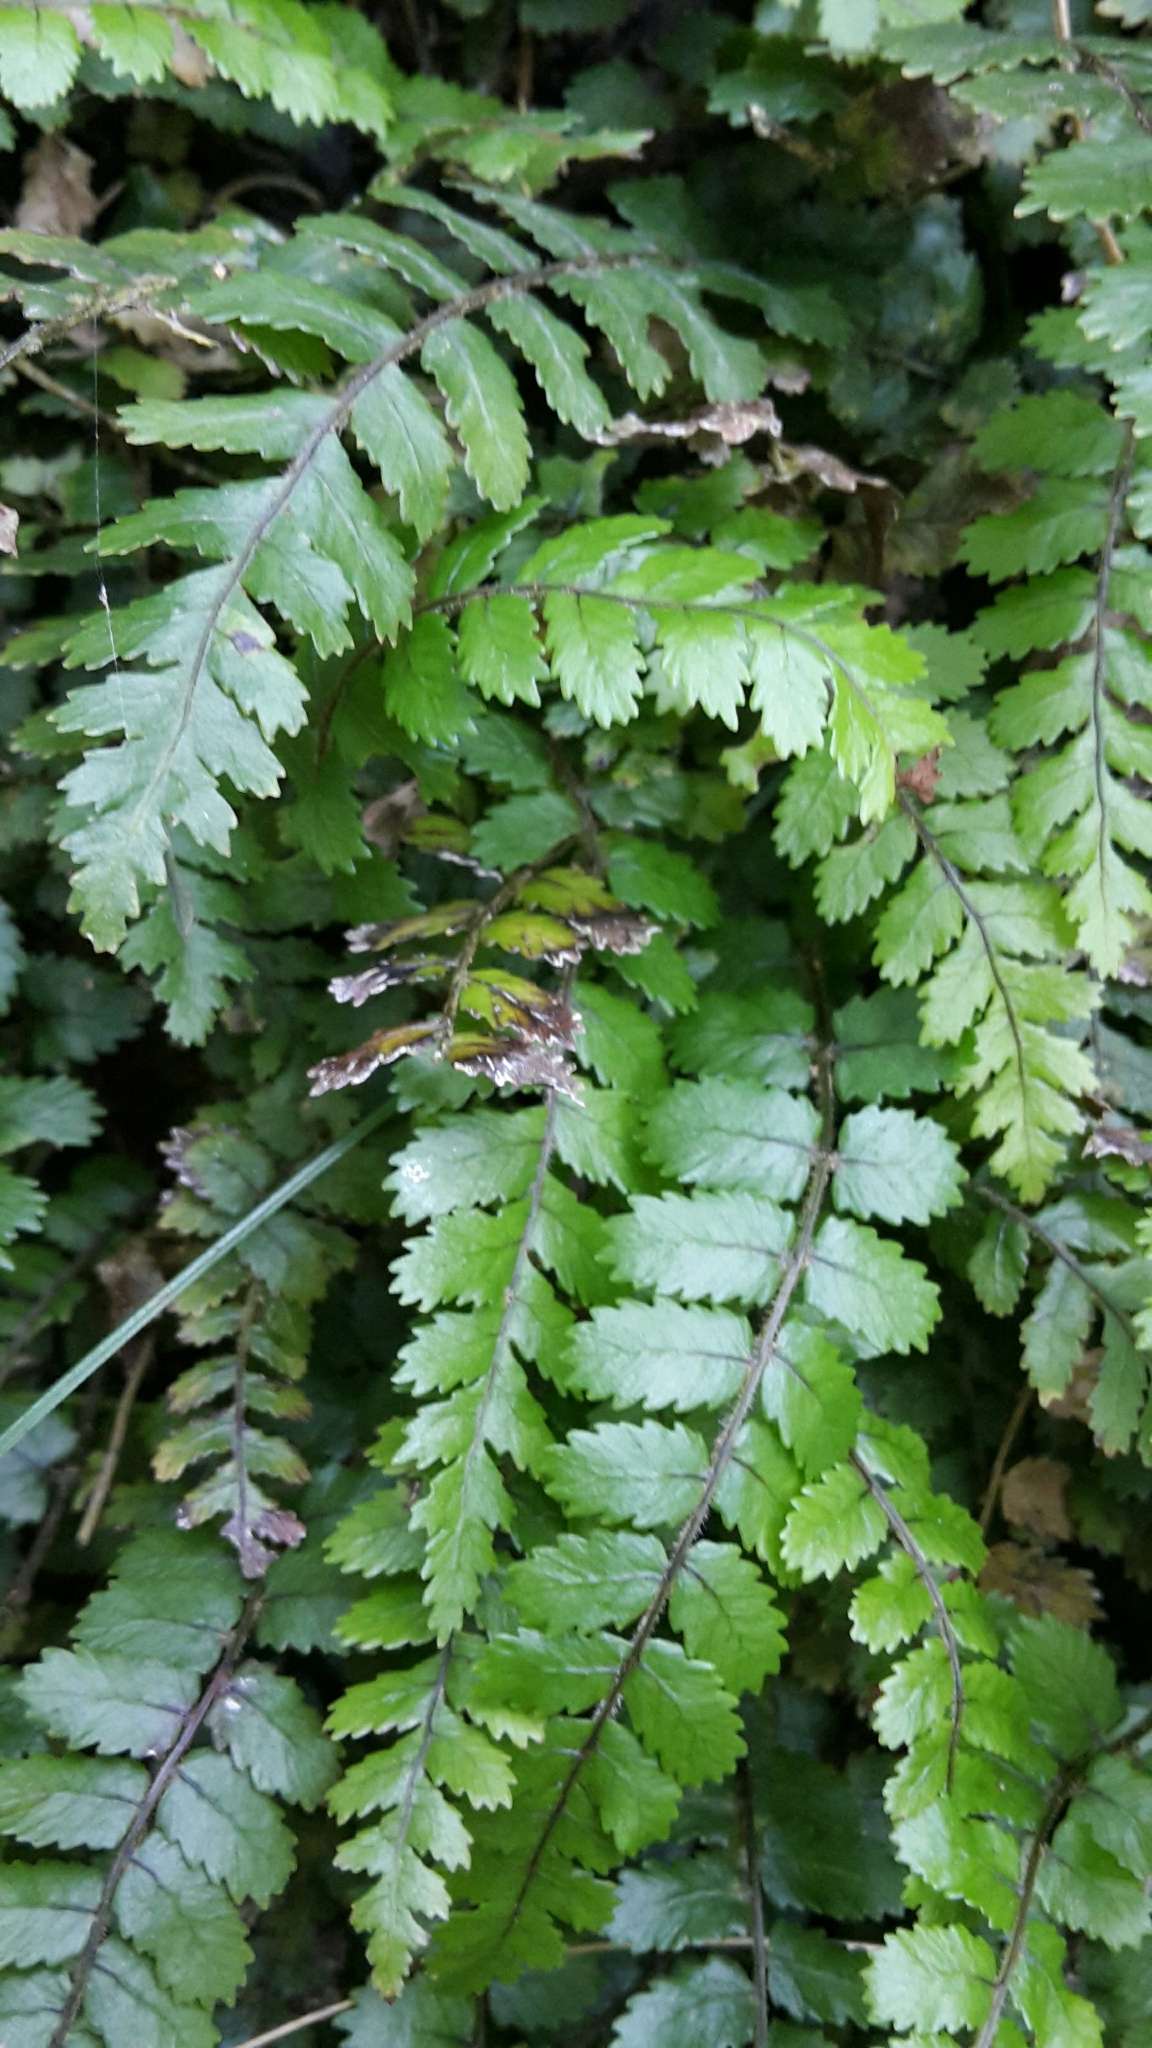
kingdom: Plantae
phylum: Tracheophyta
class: Polypodiopsida
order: Polypodiales
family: Blechnaceae
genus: Icarus
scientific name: Icarus filiformis
